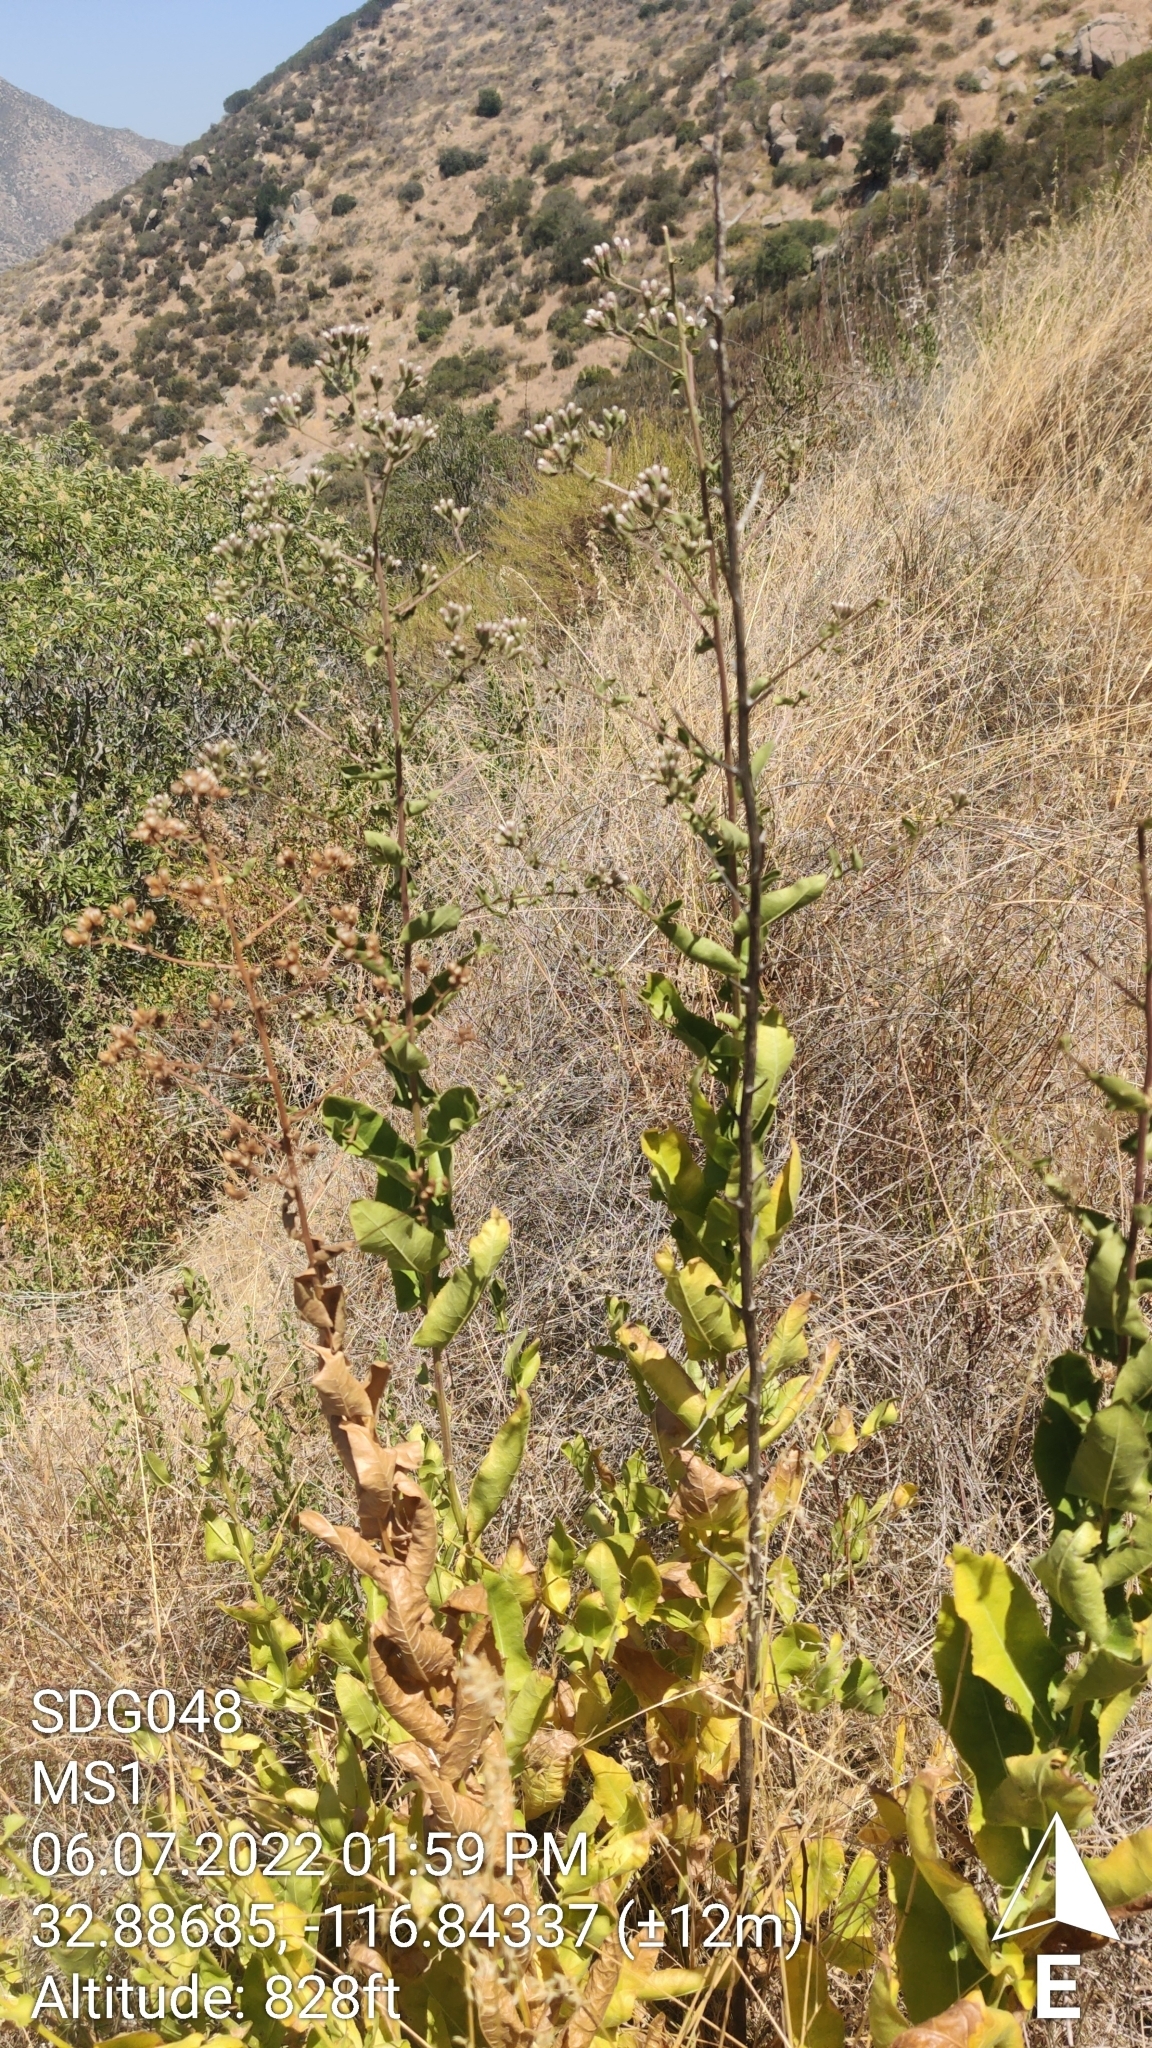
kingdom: Plantae
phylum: Tracheophyta
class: Magnoliopsida
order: Asterales
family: Asteraceae
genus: Acourtia
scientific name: Acourtia microcephala
